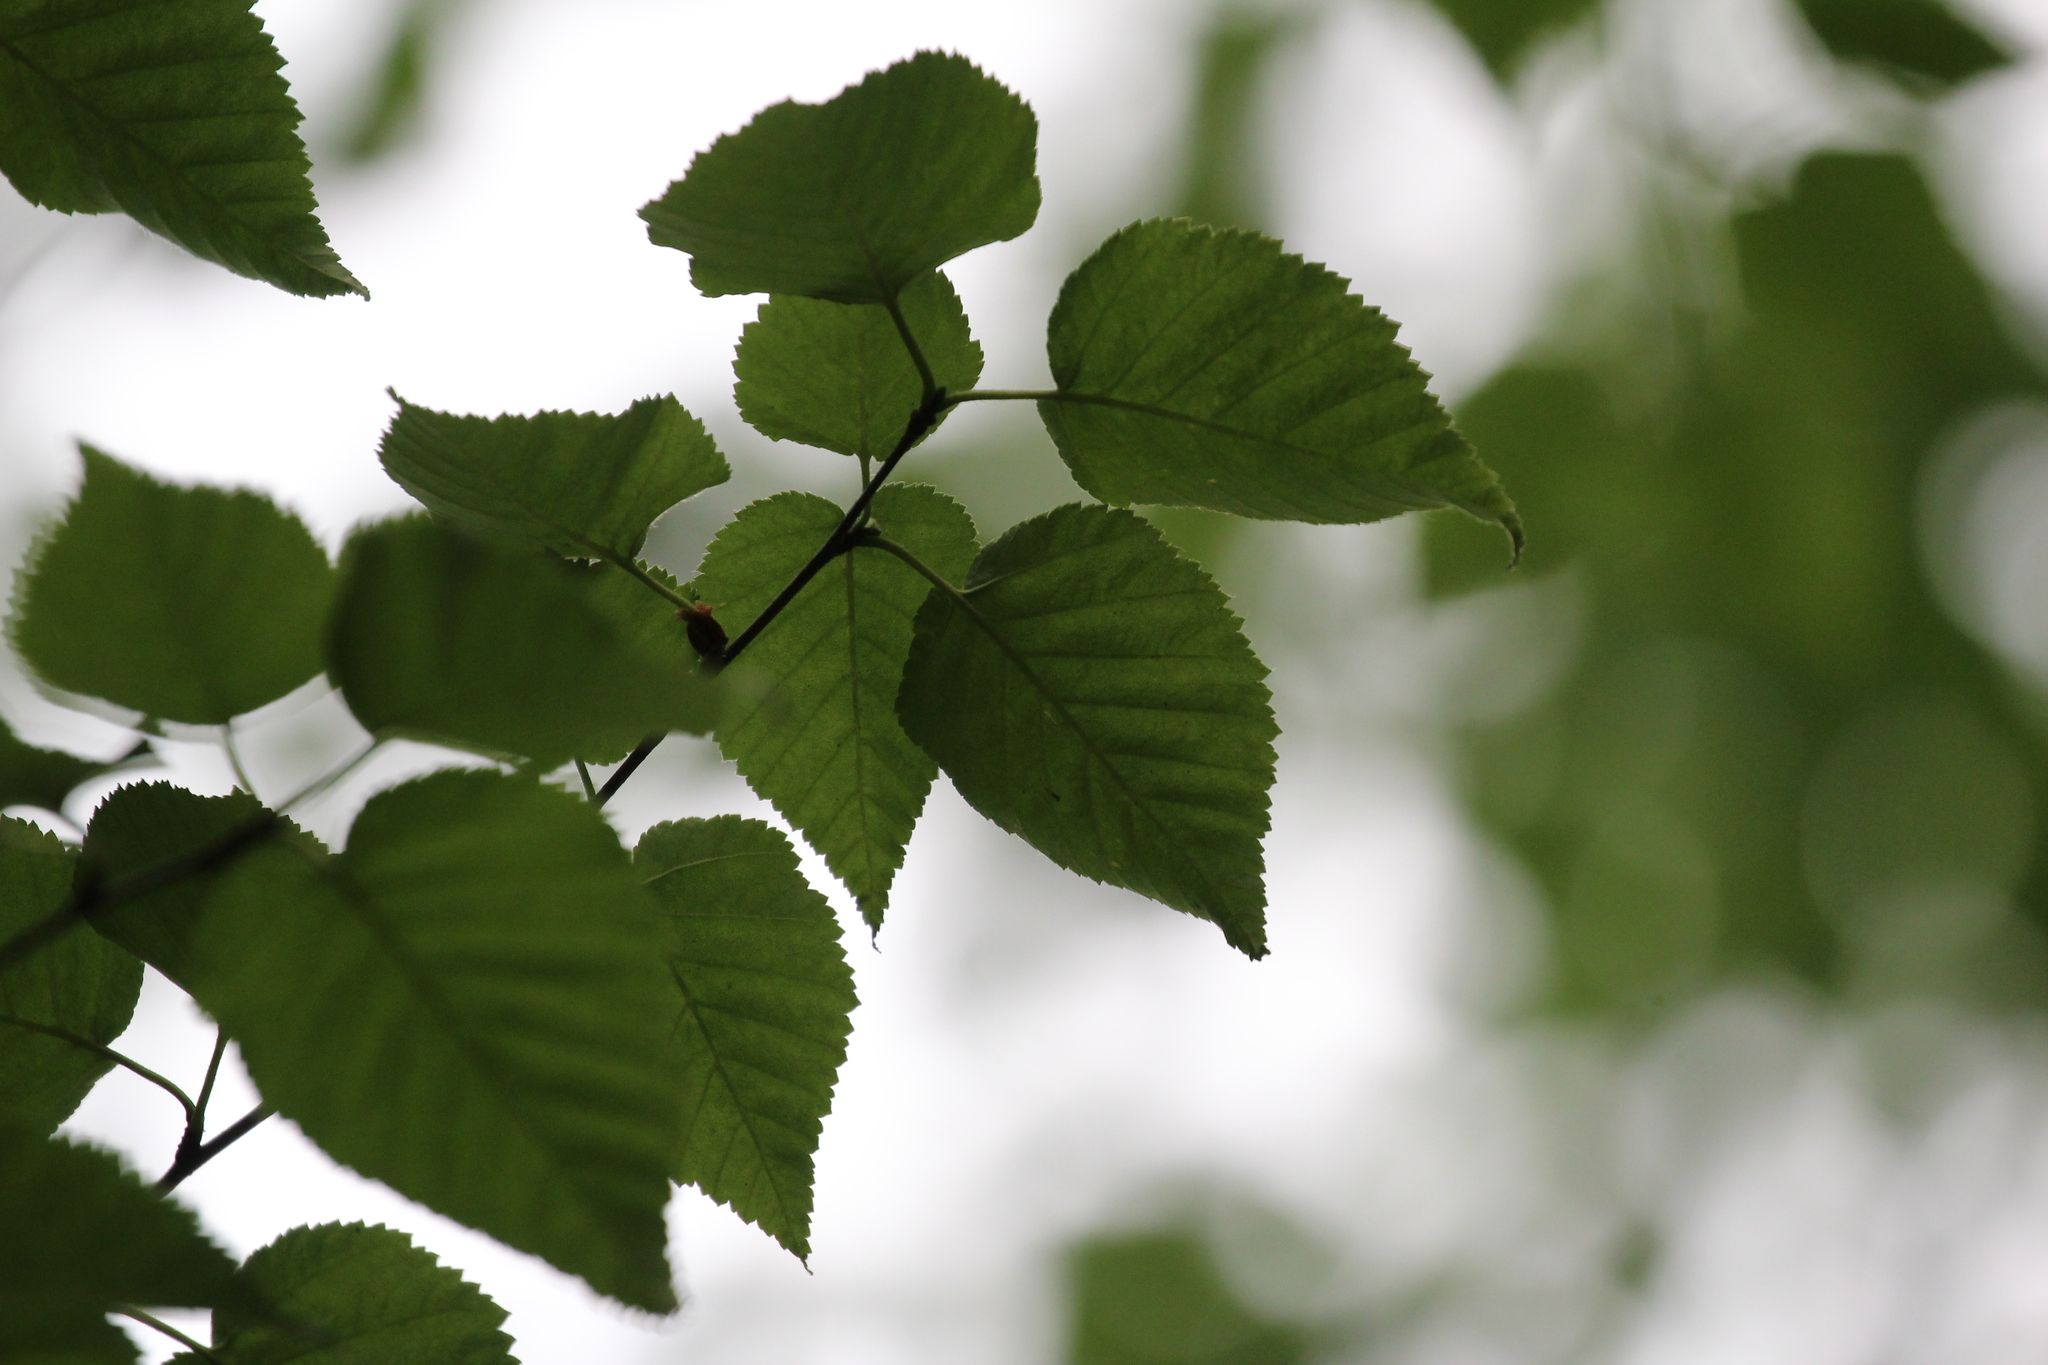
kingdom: Plantae
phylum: Tracheophyta
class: Magnoliopsida
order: Fagales
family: Betulaceae
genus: Betula
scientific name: Betula cordifolia
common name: Mountain white birch
